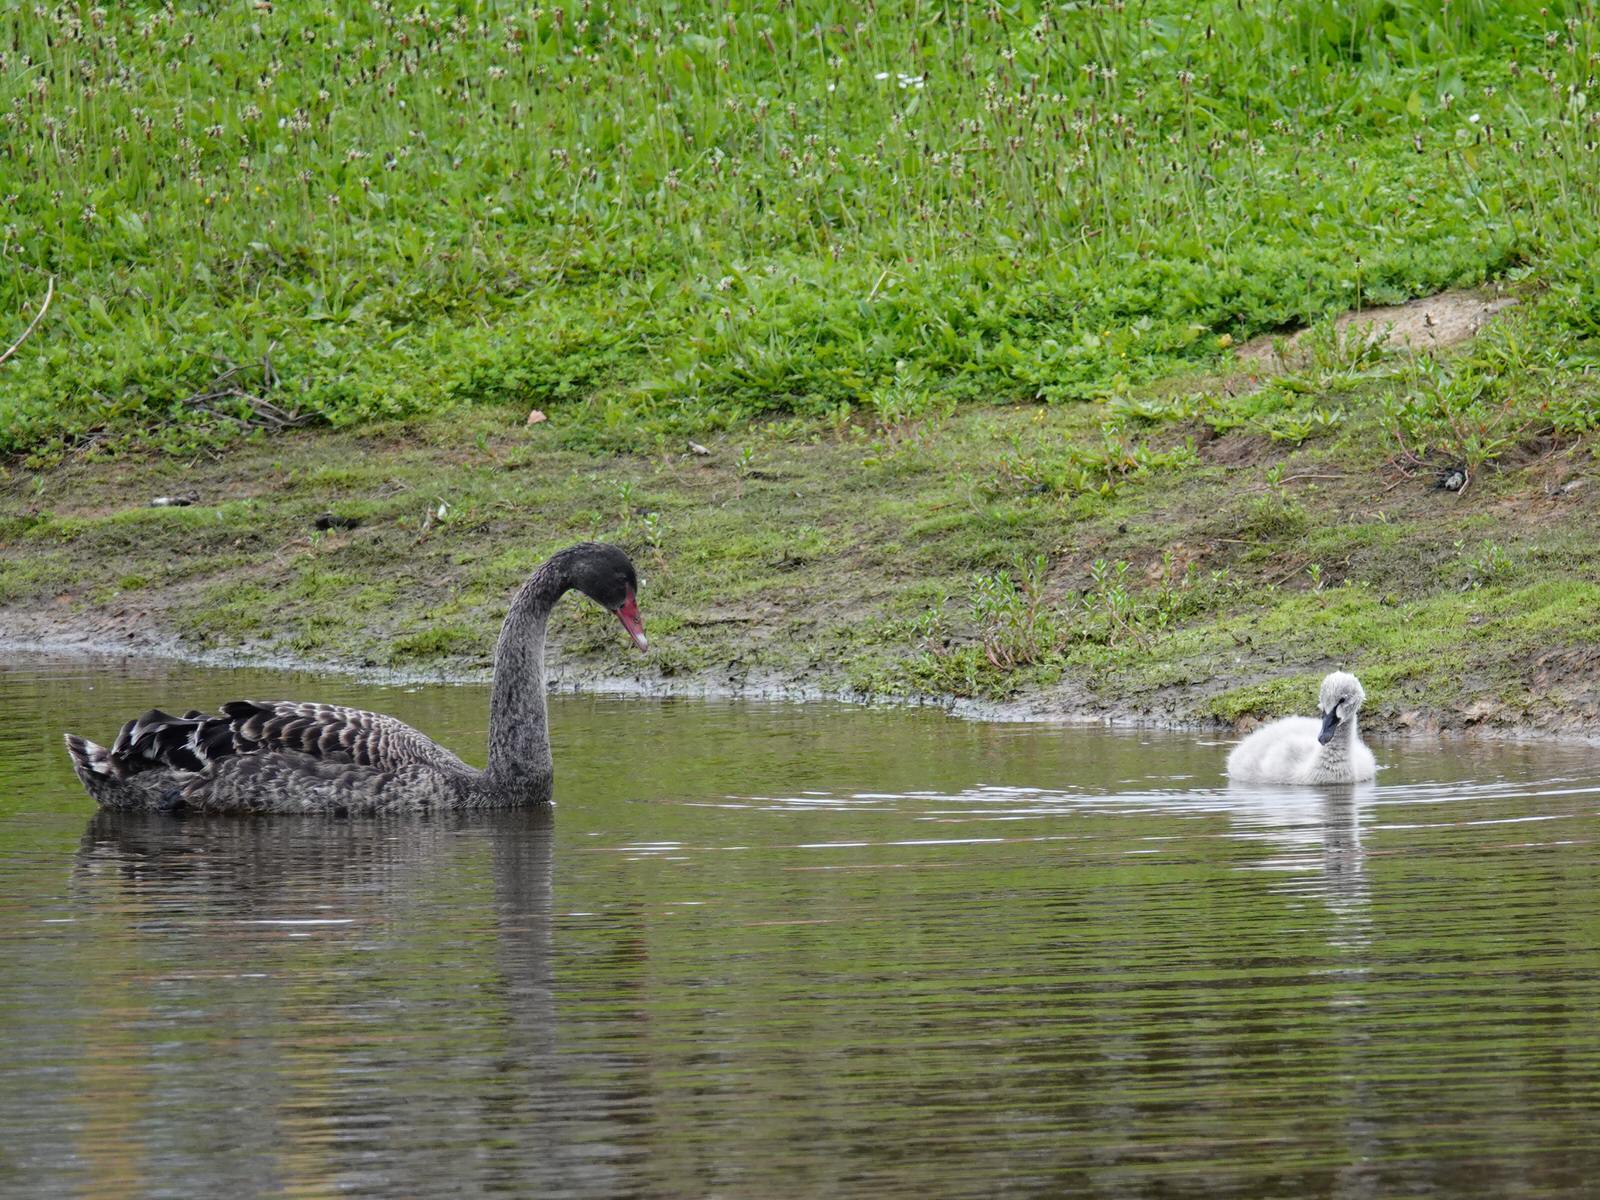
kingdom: Animalia
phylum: Chordata
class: Aves
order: Anseriformes
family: Anatidae
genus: Cygnus
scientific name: Cygnus atratus
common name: Black swan
